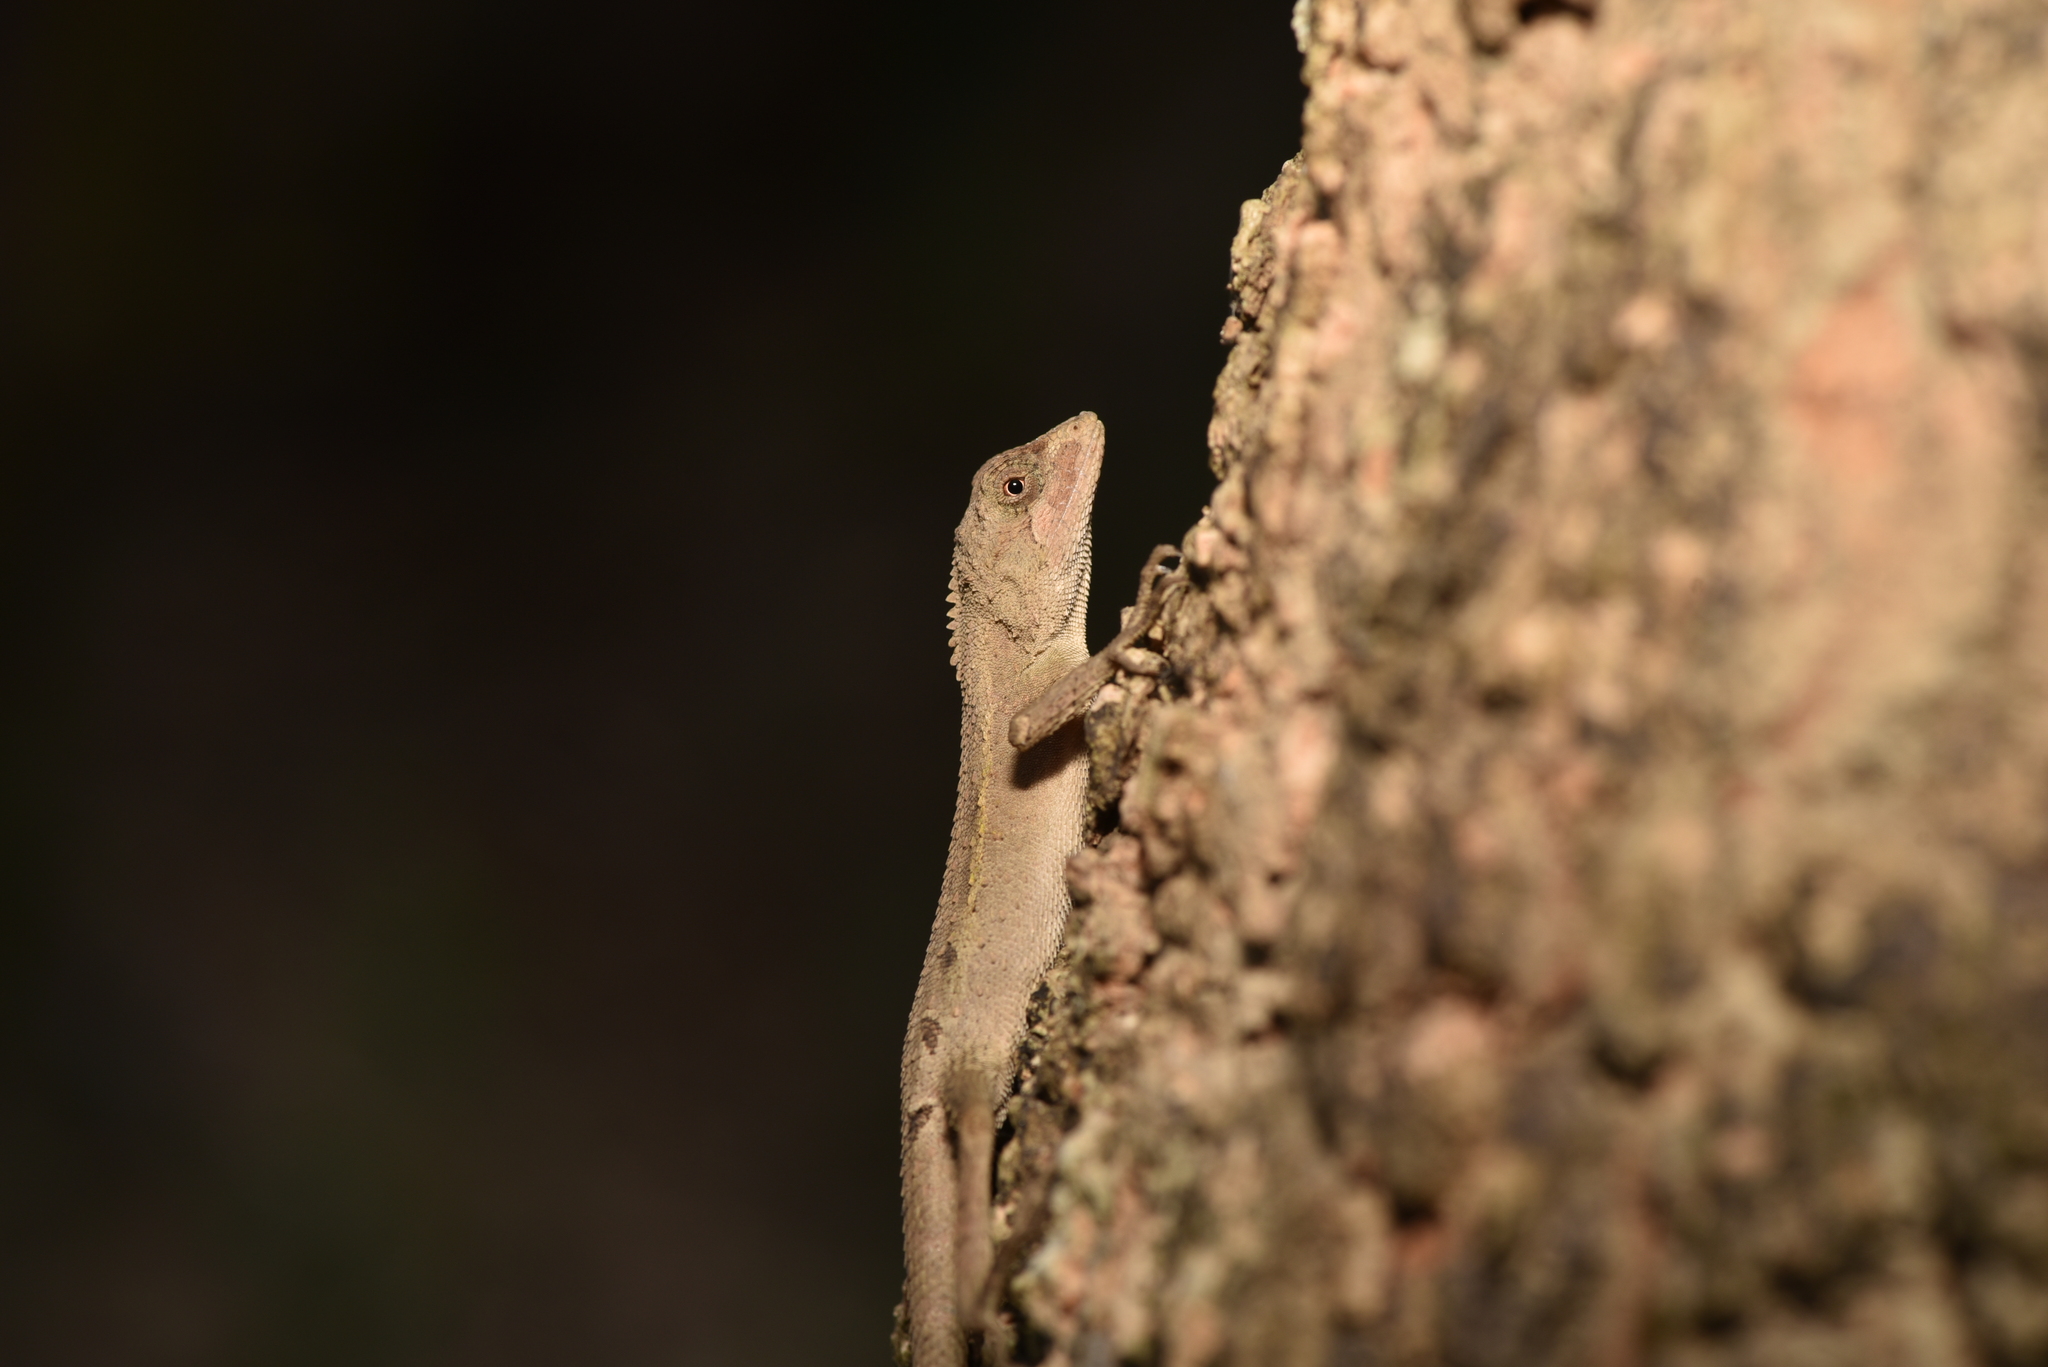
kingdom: Animalia
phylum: Chordata
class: Squamata
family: Agamidae
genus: Diploderma
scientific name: Diploderma swinhonis
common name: Taiwan japalure
